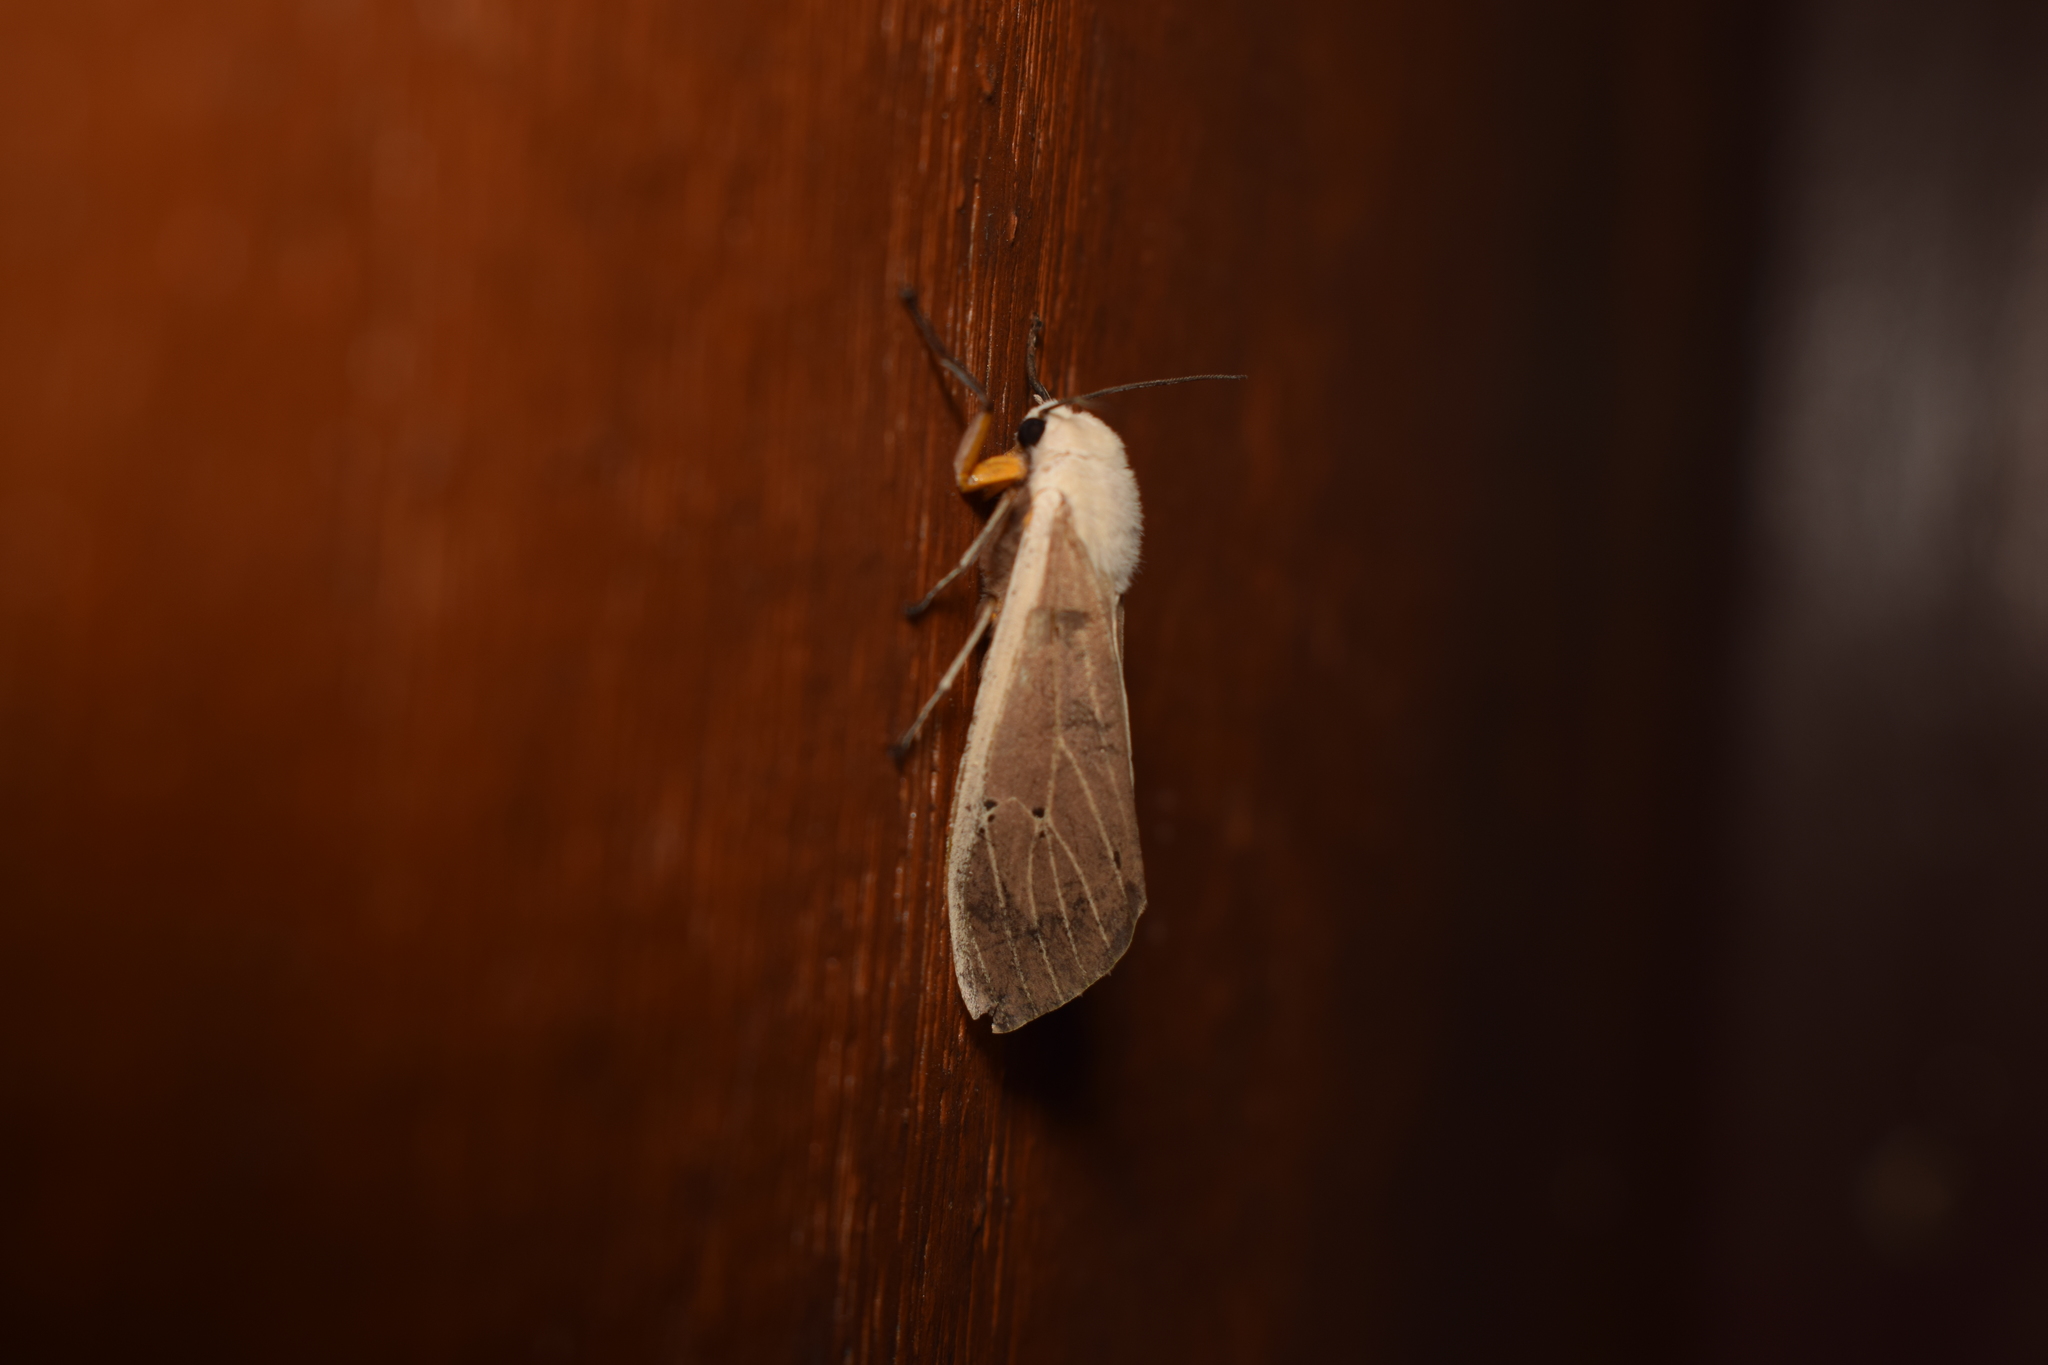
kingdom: Animalia
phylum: Arthropoda
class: Insecta
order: Lepidoptera
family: Erebidae
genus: Creatonotos
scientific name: Creatonotos transiens
